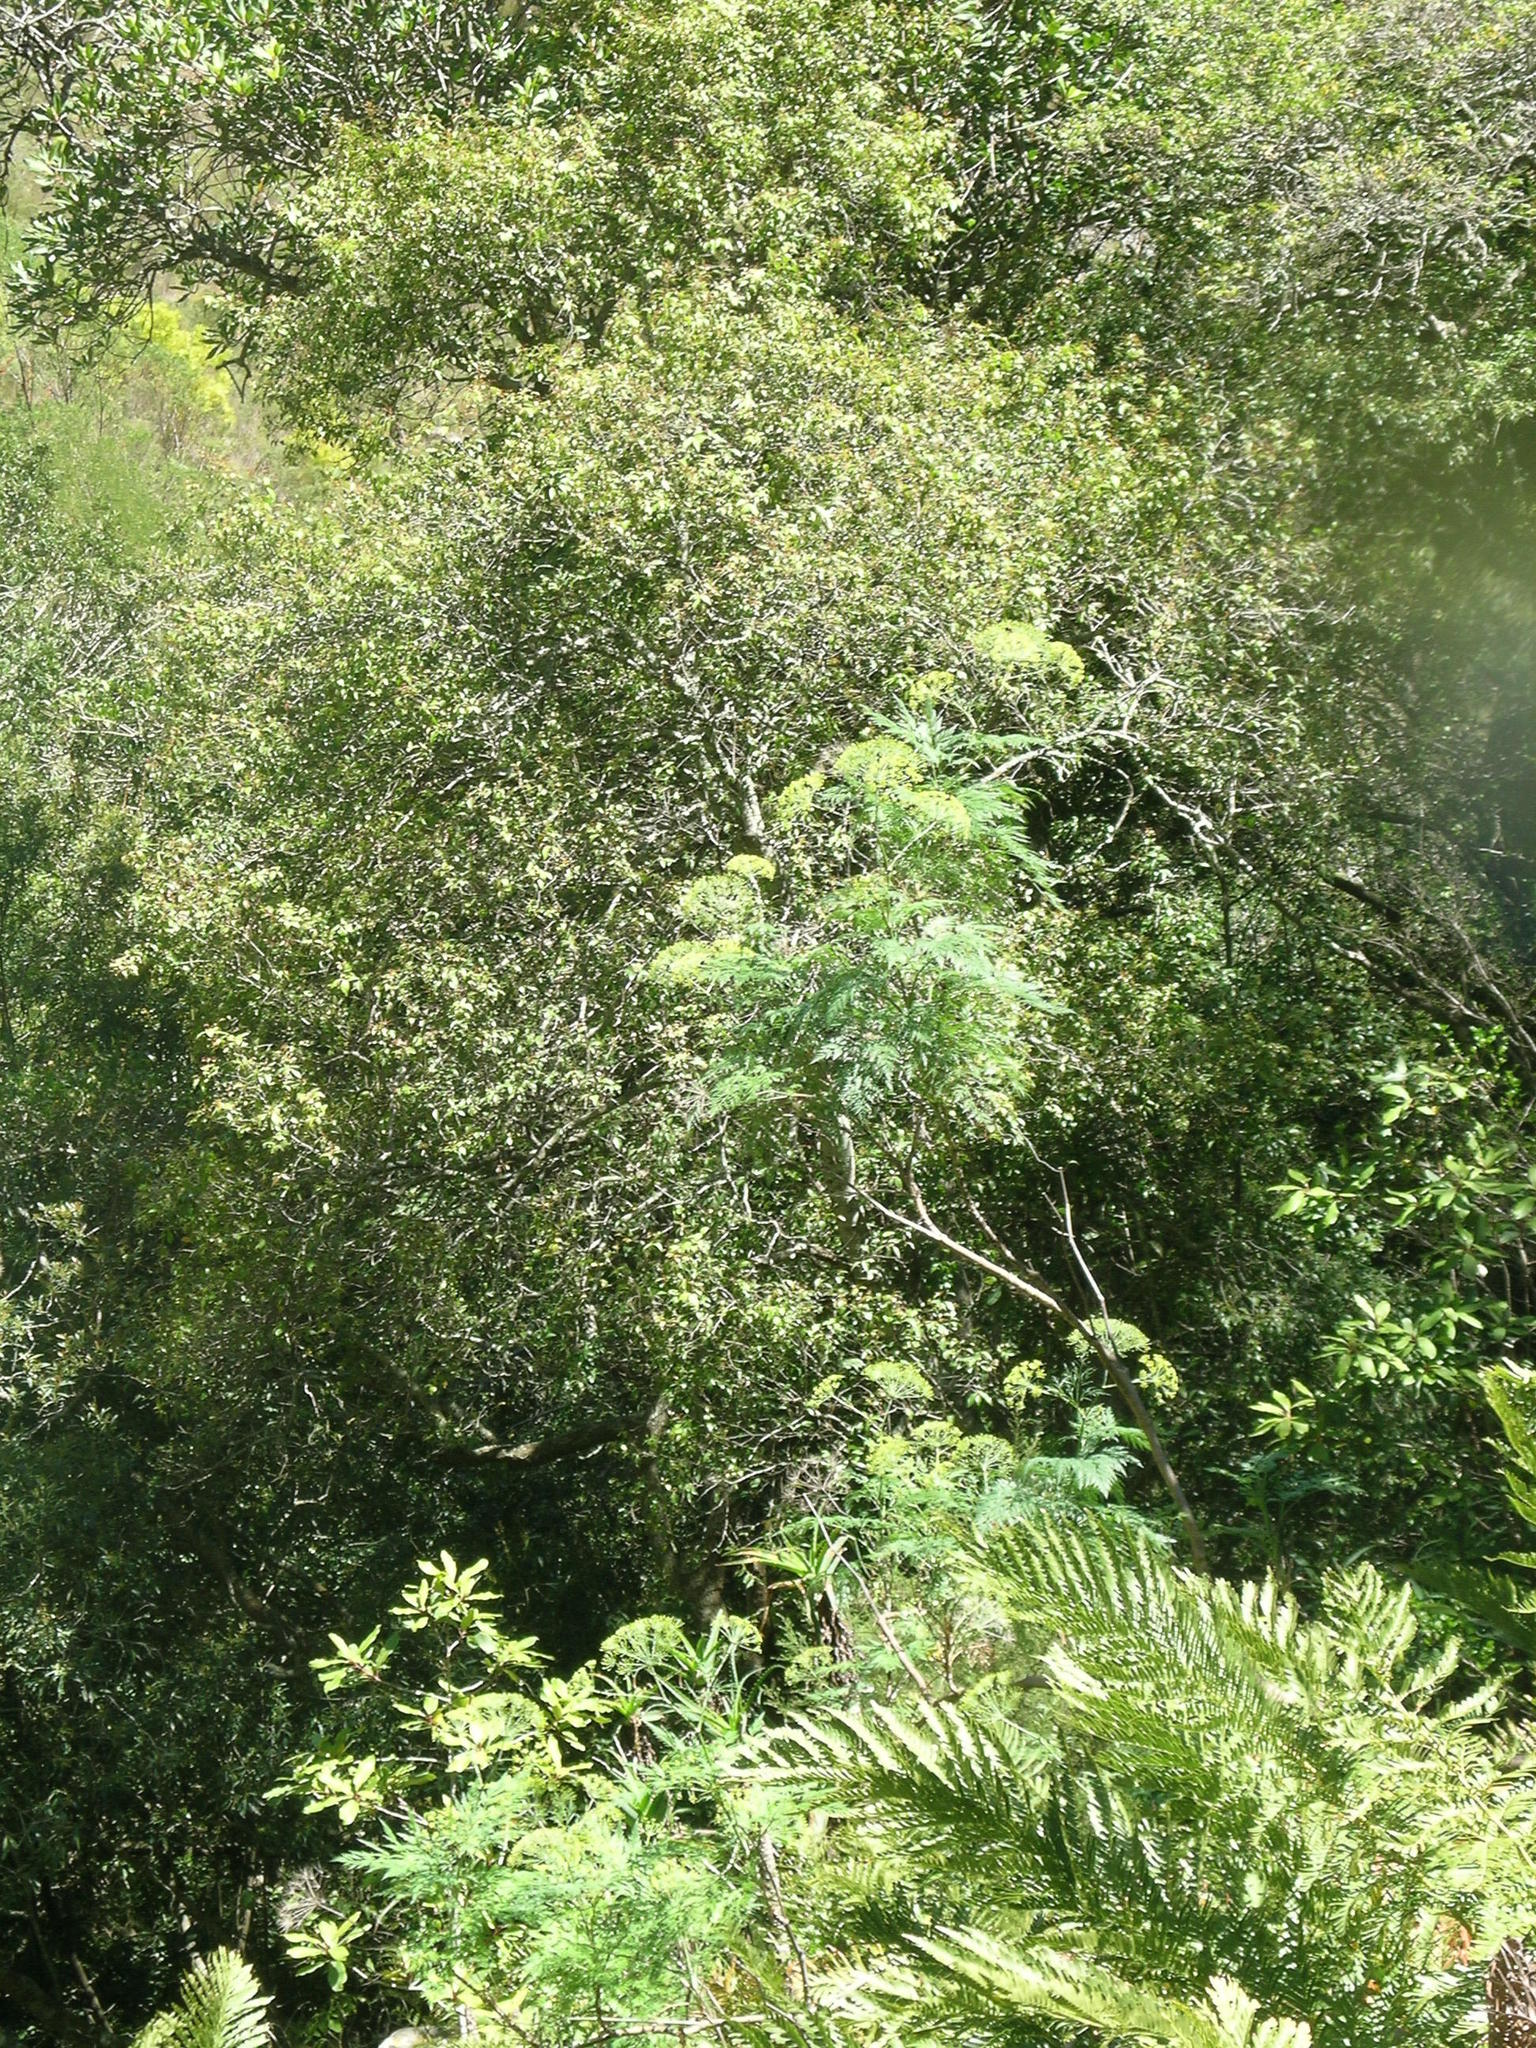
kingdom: Plantae
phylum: Tracheophyta
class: Magnoliopsida
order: Apiales
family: Apiaceae
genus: Notobubon
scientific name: Notobubon gummiferum
